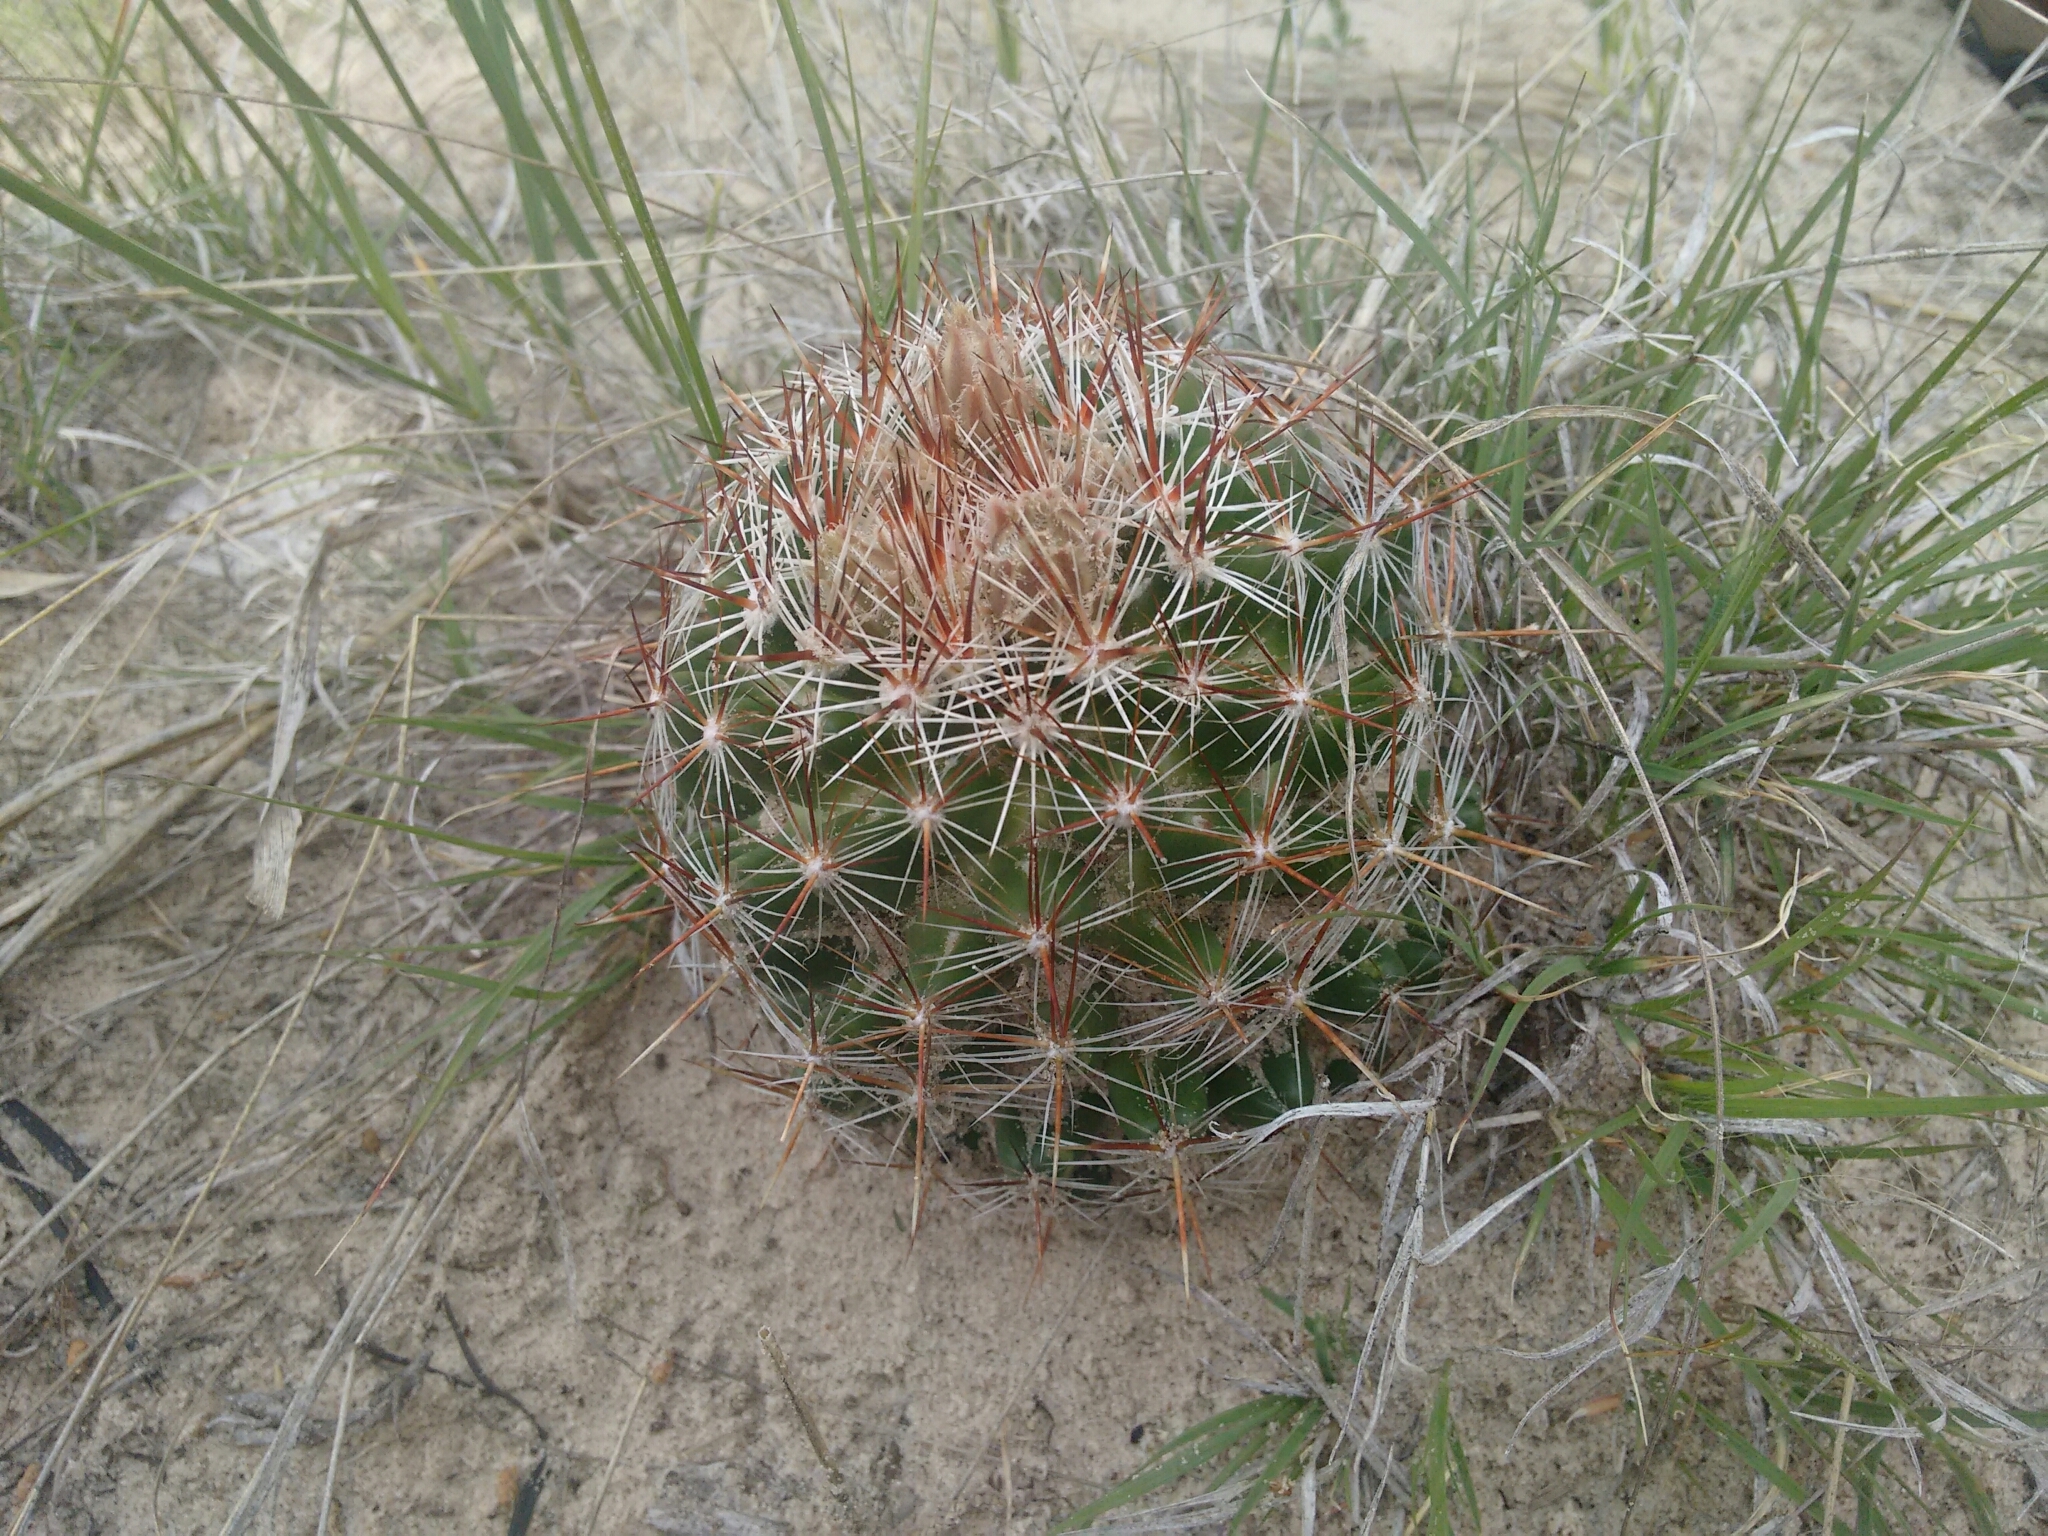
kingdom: Plantae
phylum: Tracheophyta
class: Magnoliopsida
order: Caryophyllales
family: Cactaceae
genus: Pelecyphora
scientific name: Pelecyphora vivipara
